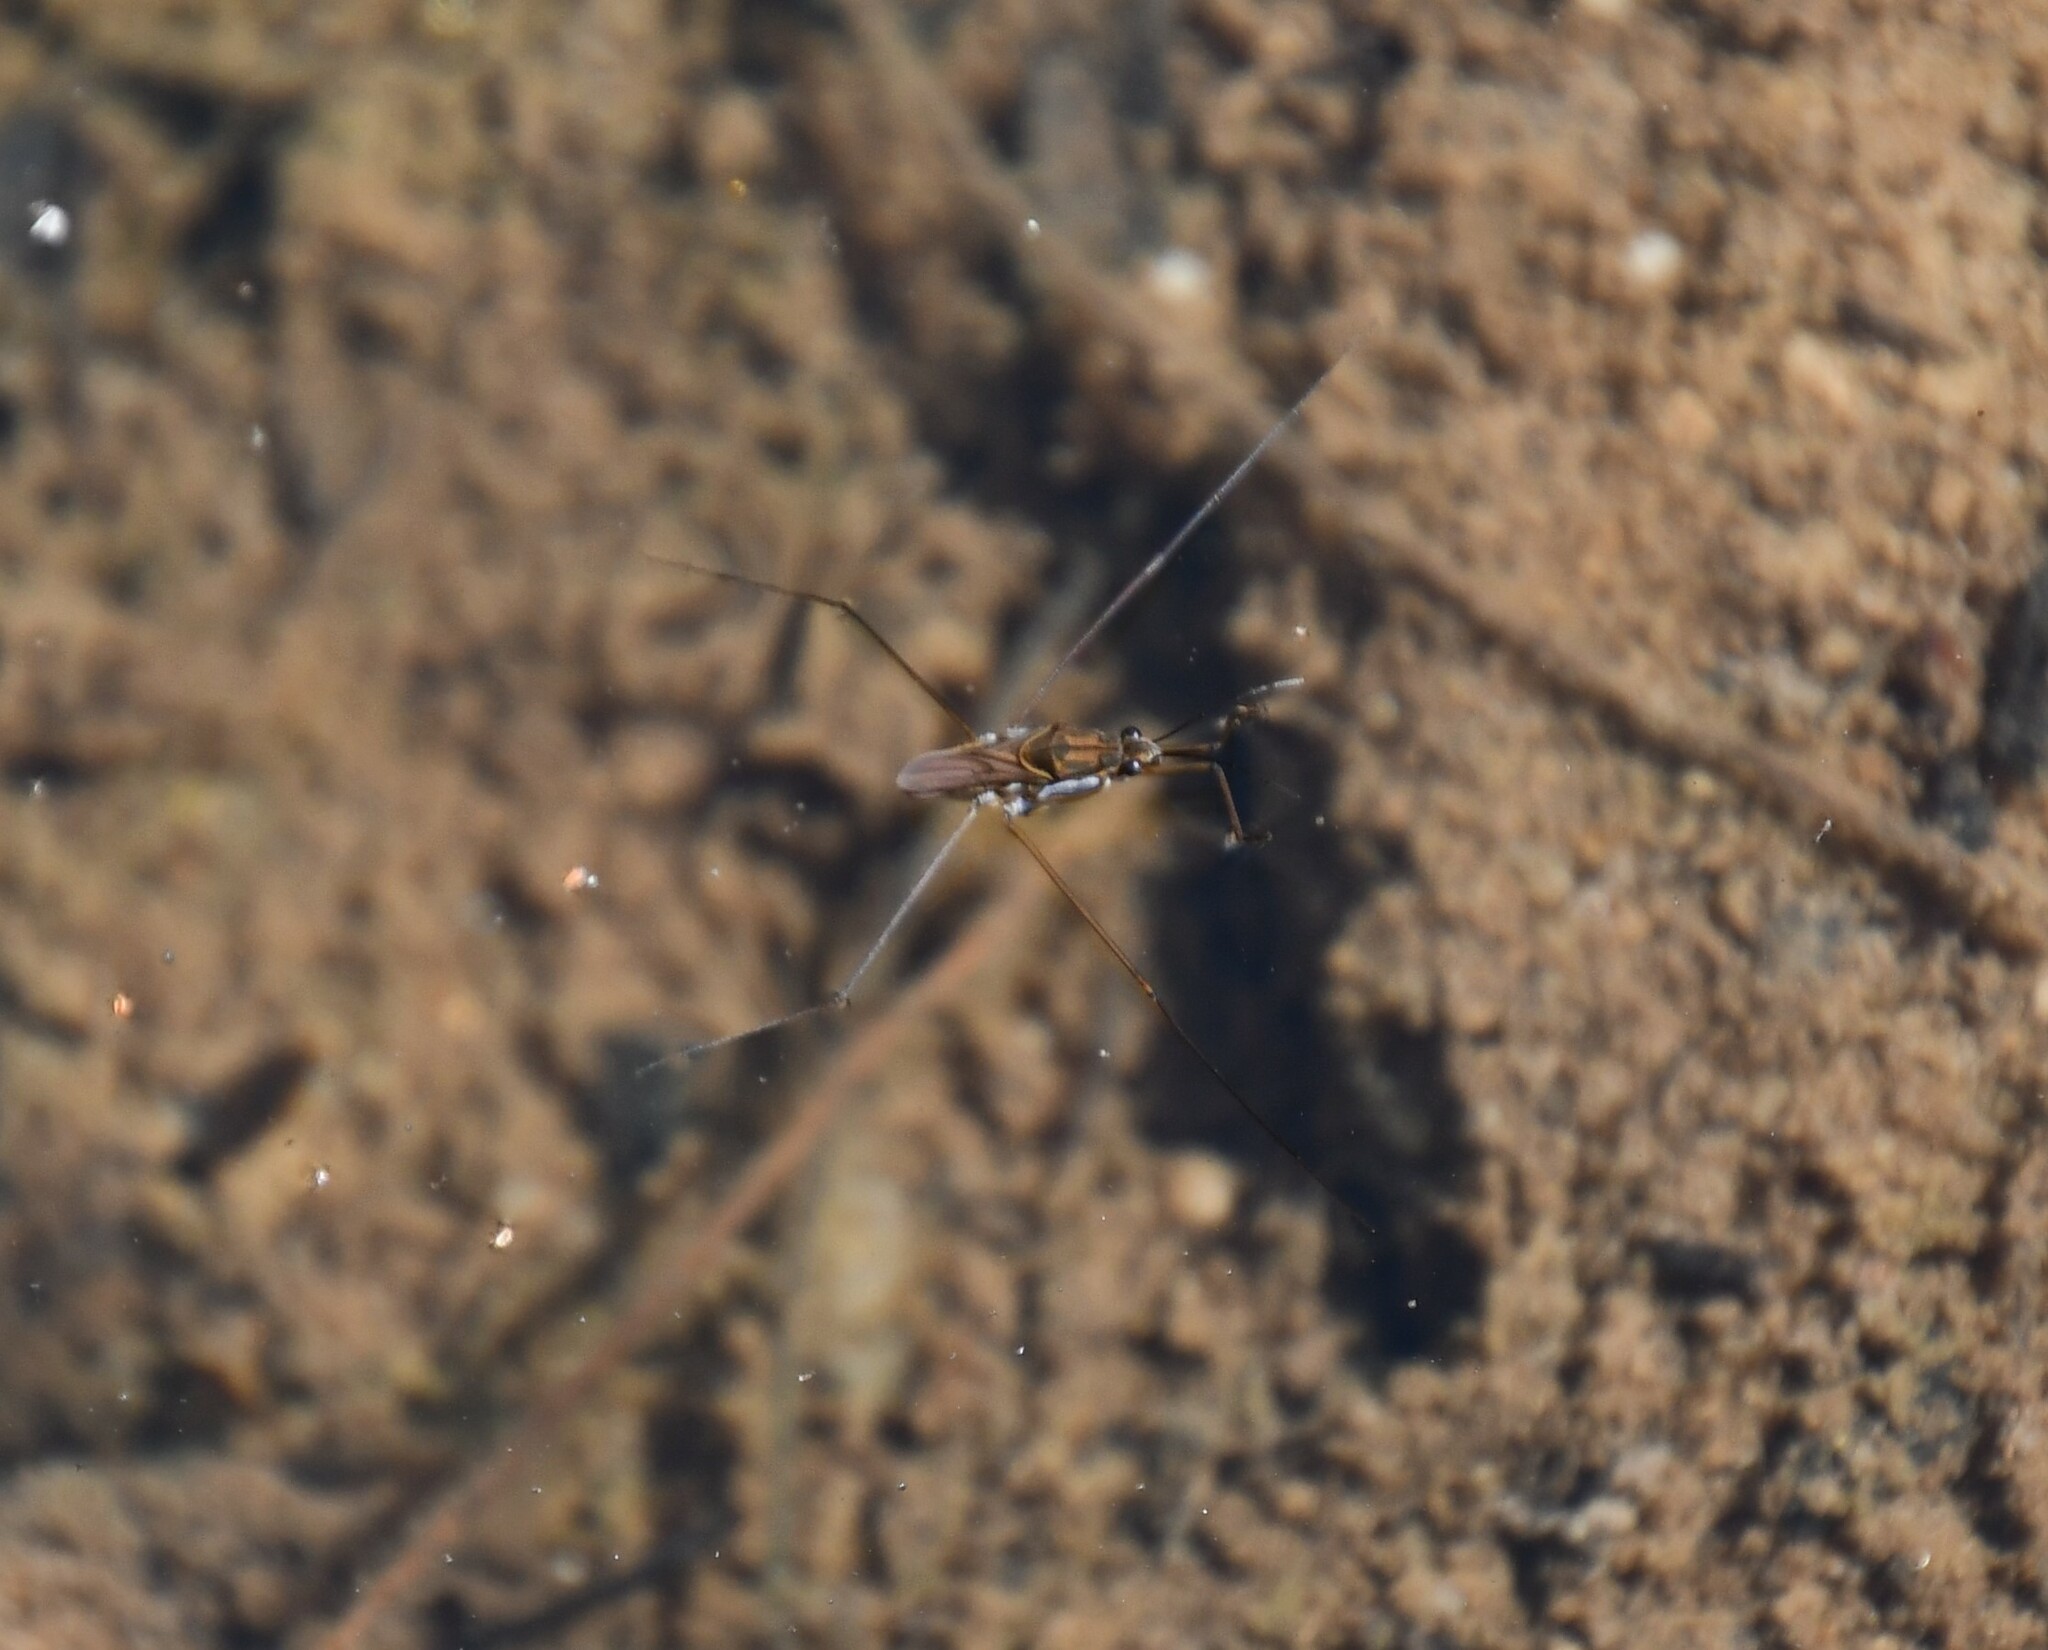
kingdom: Animalia
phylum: Arthropoda
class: Insecta
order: Hemiptera
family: Gerridae
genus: Tenagogerris
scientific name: Tenagogerris
